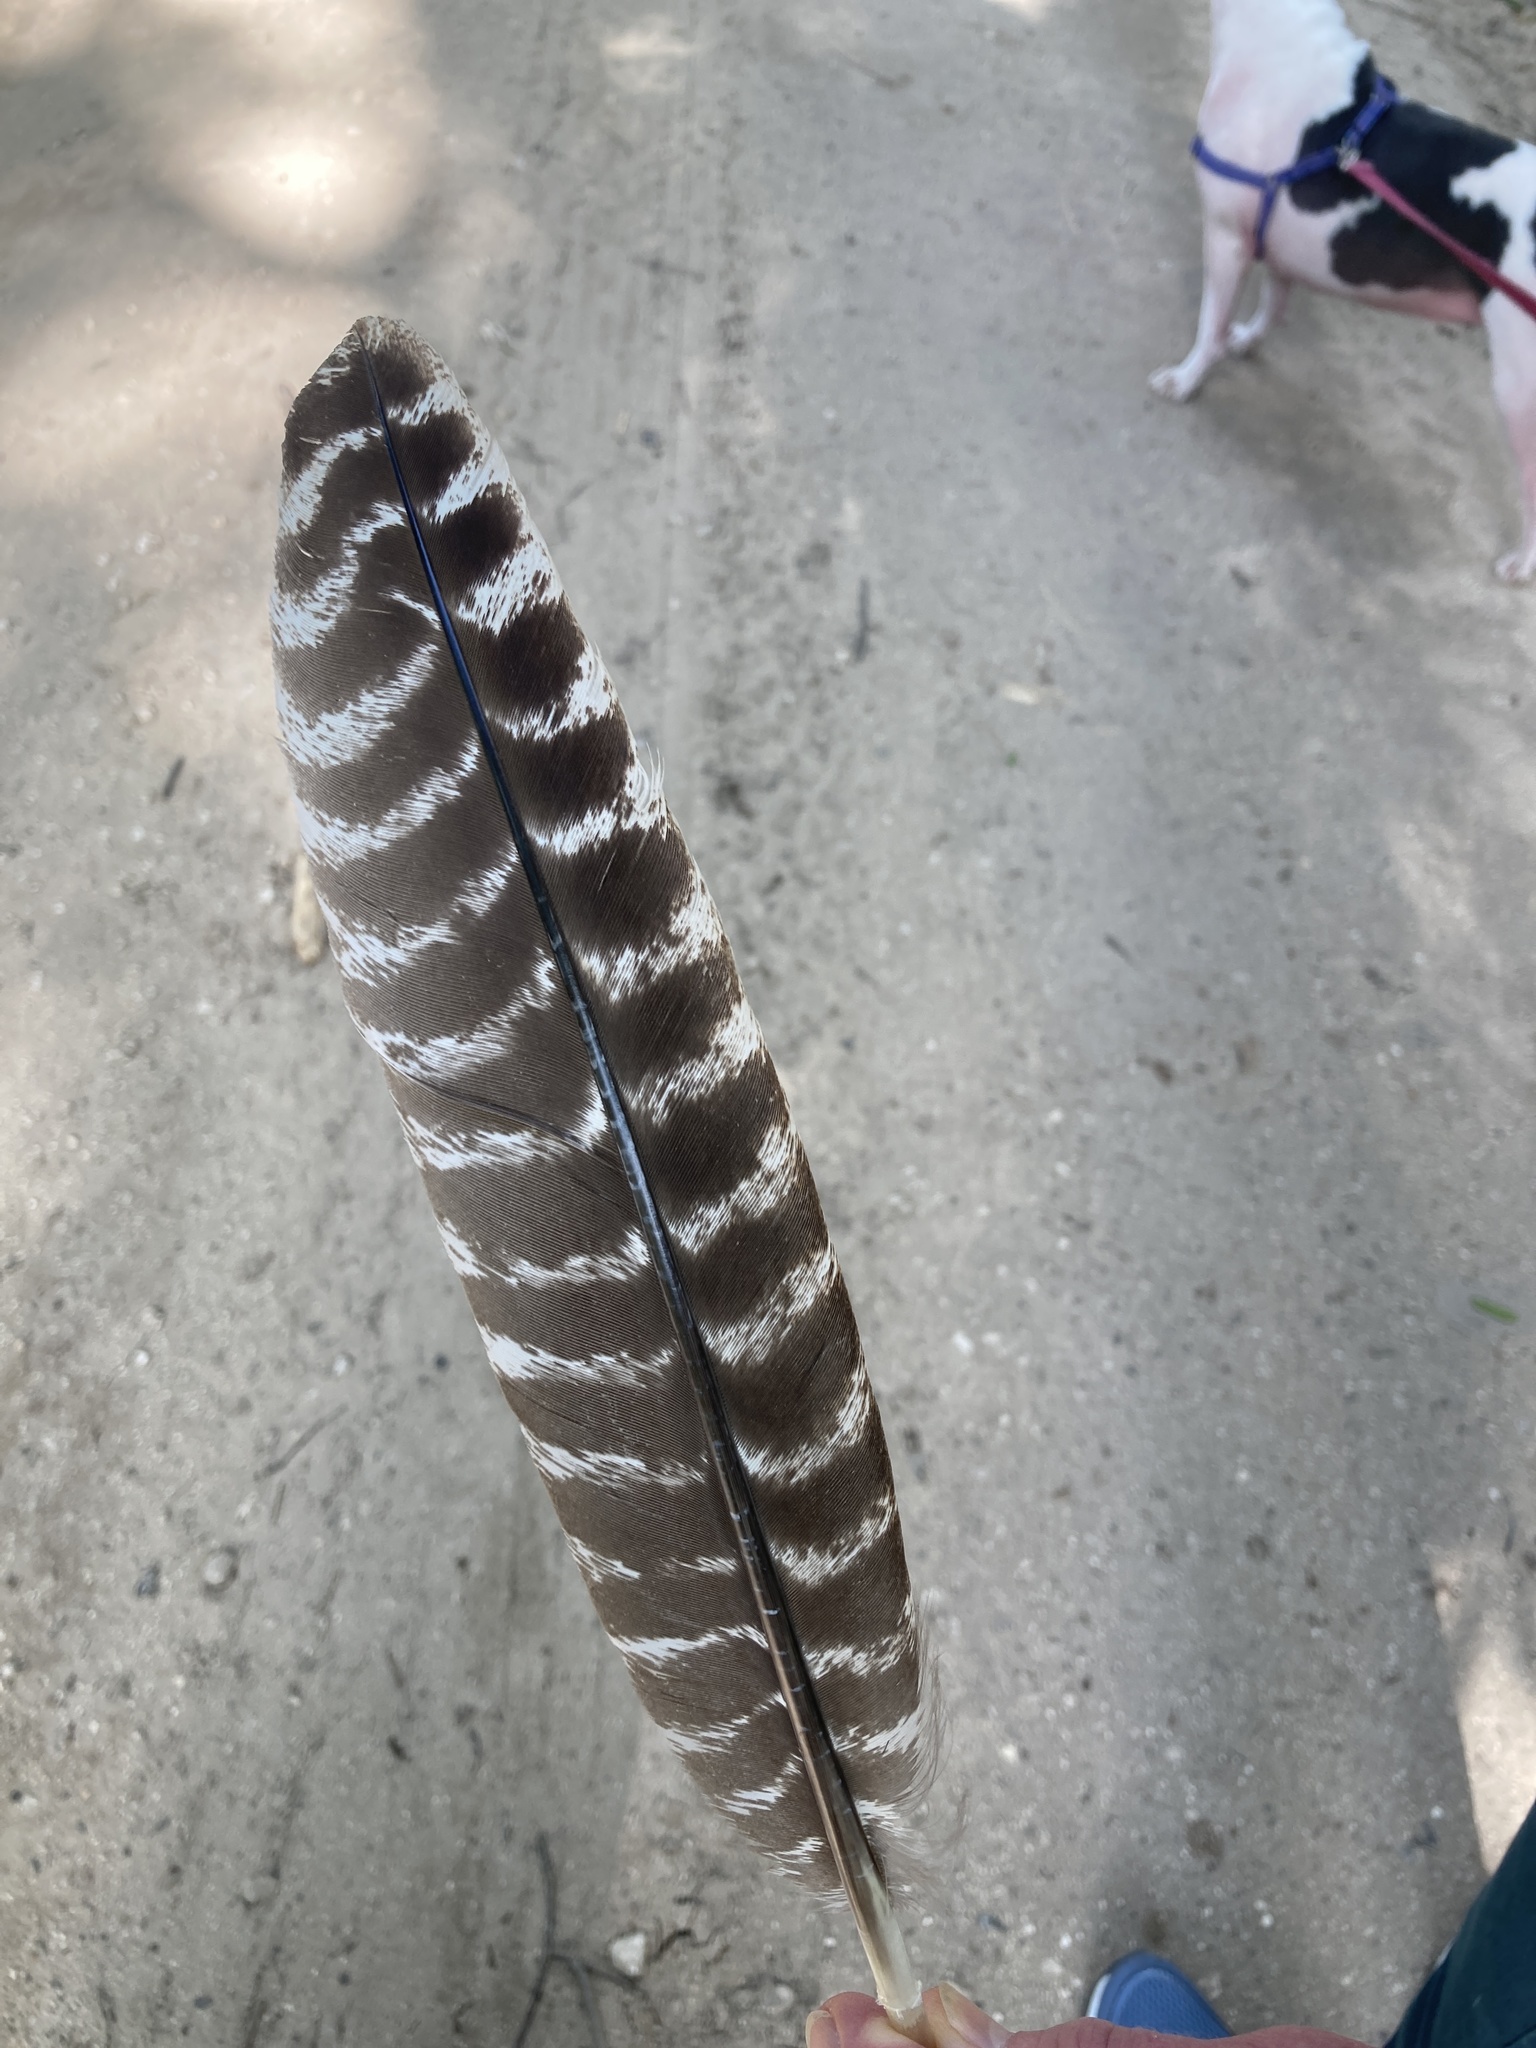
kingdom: Animalia
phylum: Chordata
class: Aves
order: Galliformes
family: Phasianidae
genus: Meleagris
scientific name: Meleagris gallopavo
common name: Wild turkey
